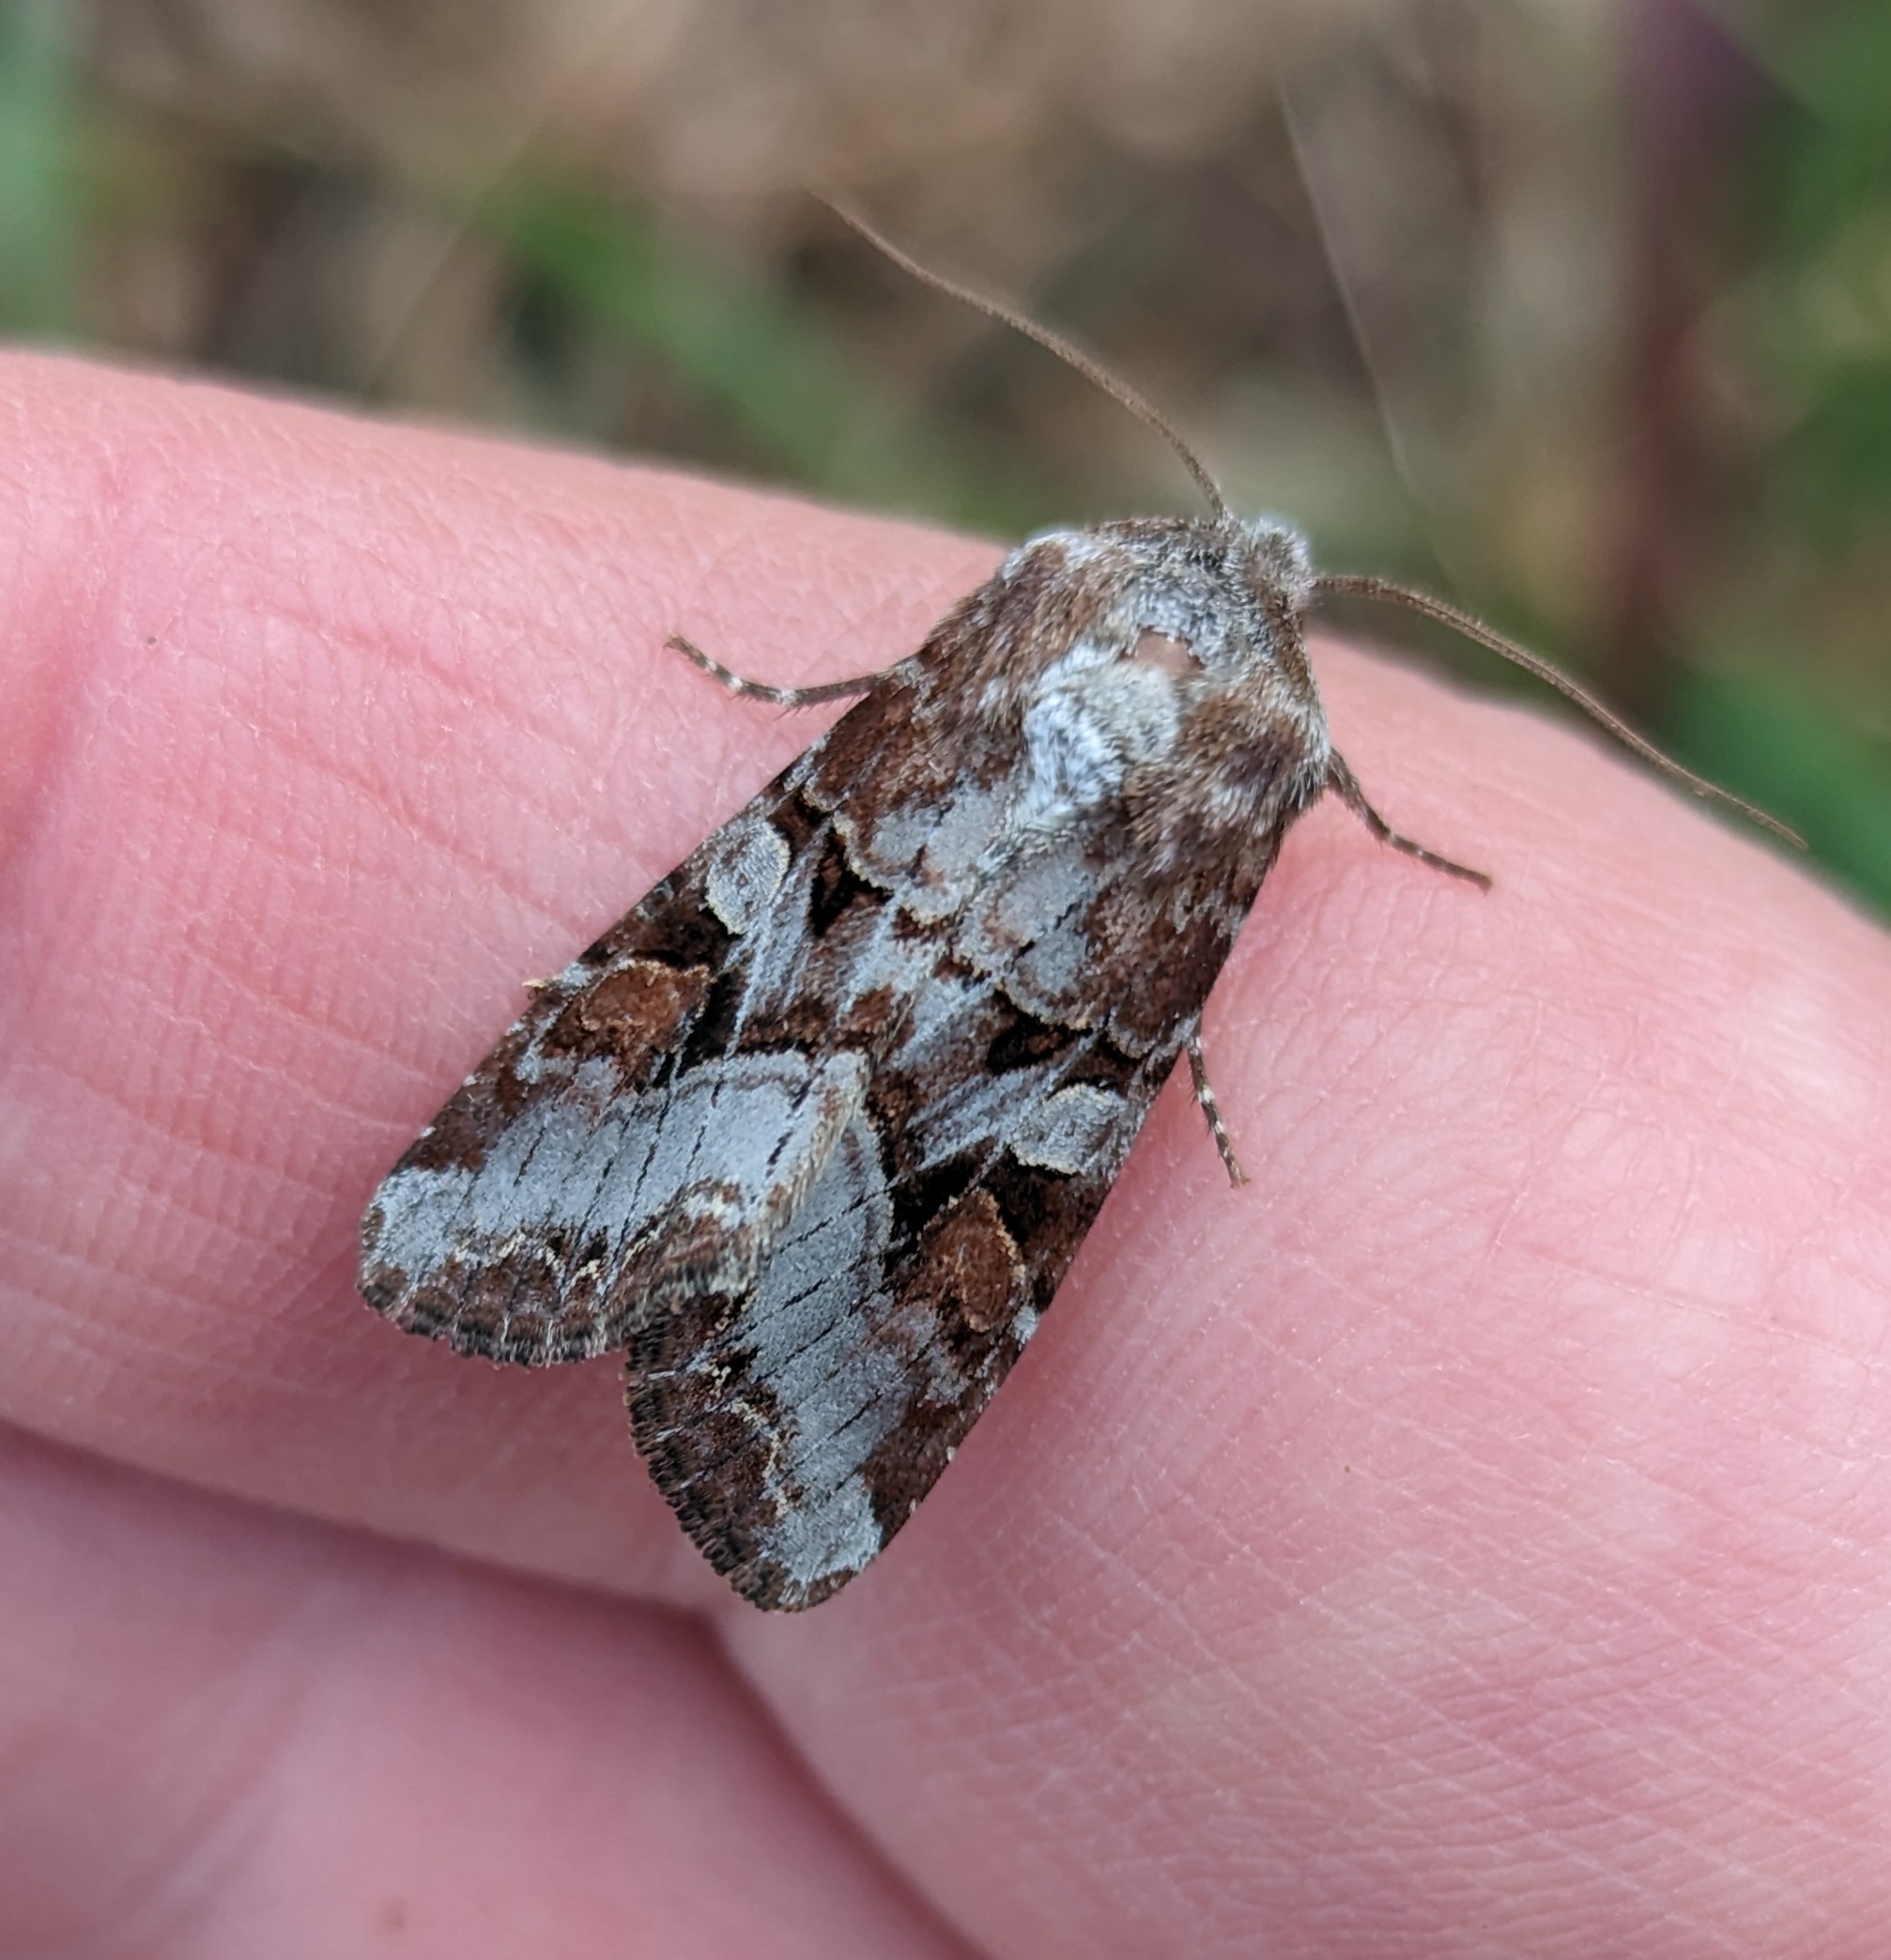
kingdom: Animalia
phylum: Arthropoda
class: Insecta
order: Lepidoptera
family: Noctuidae
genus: Trichordestra
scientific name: Trichordestra tacoma
